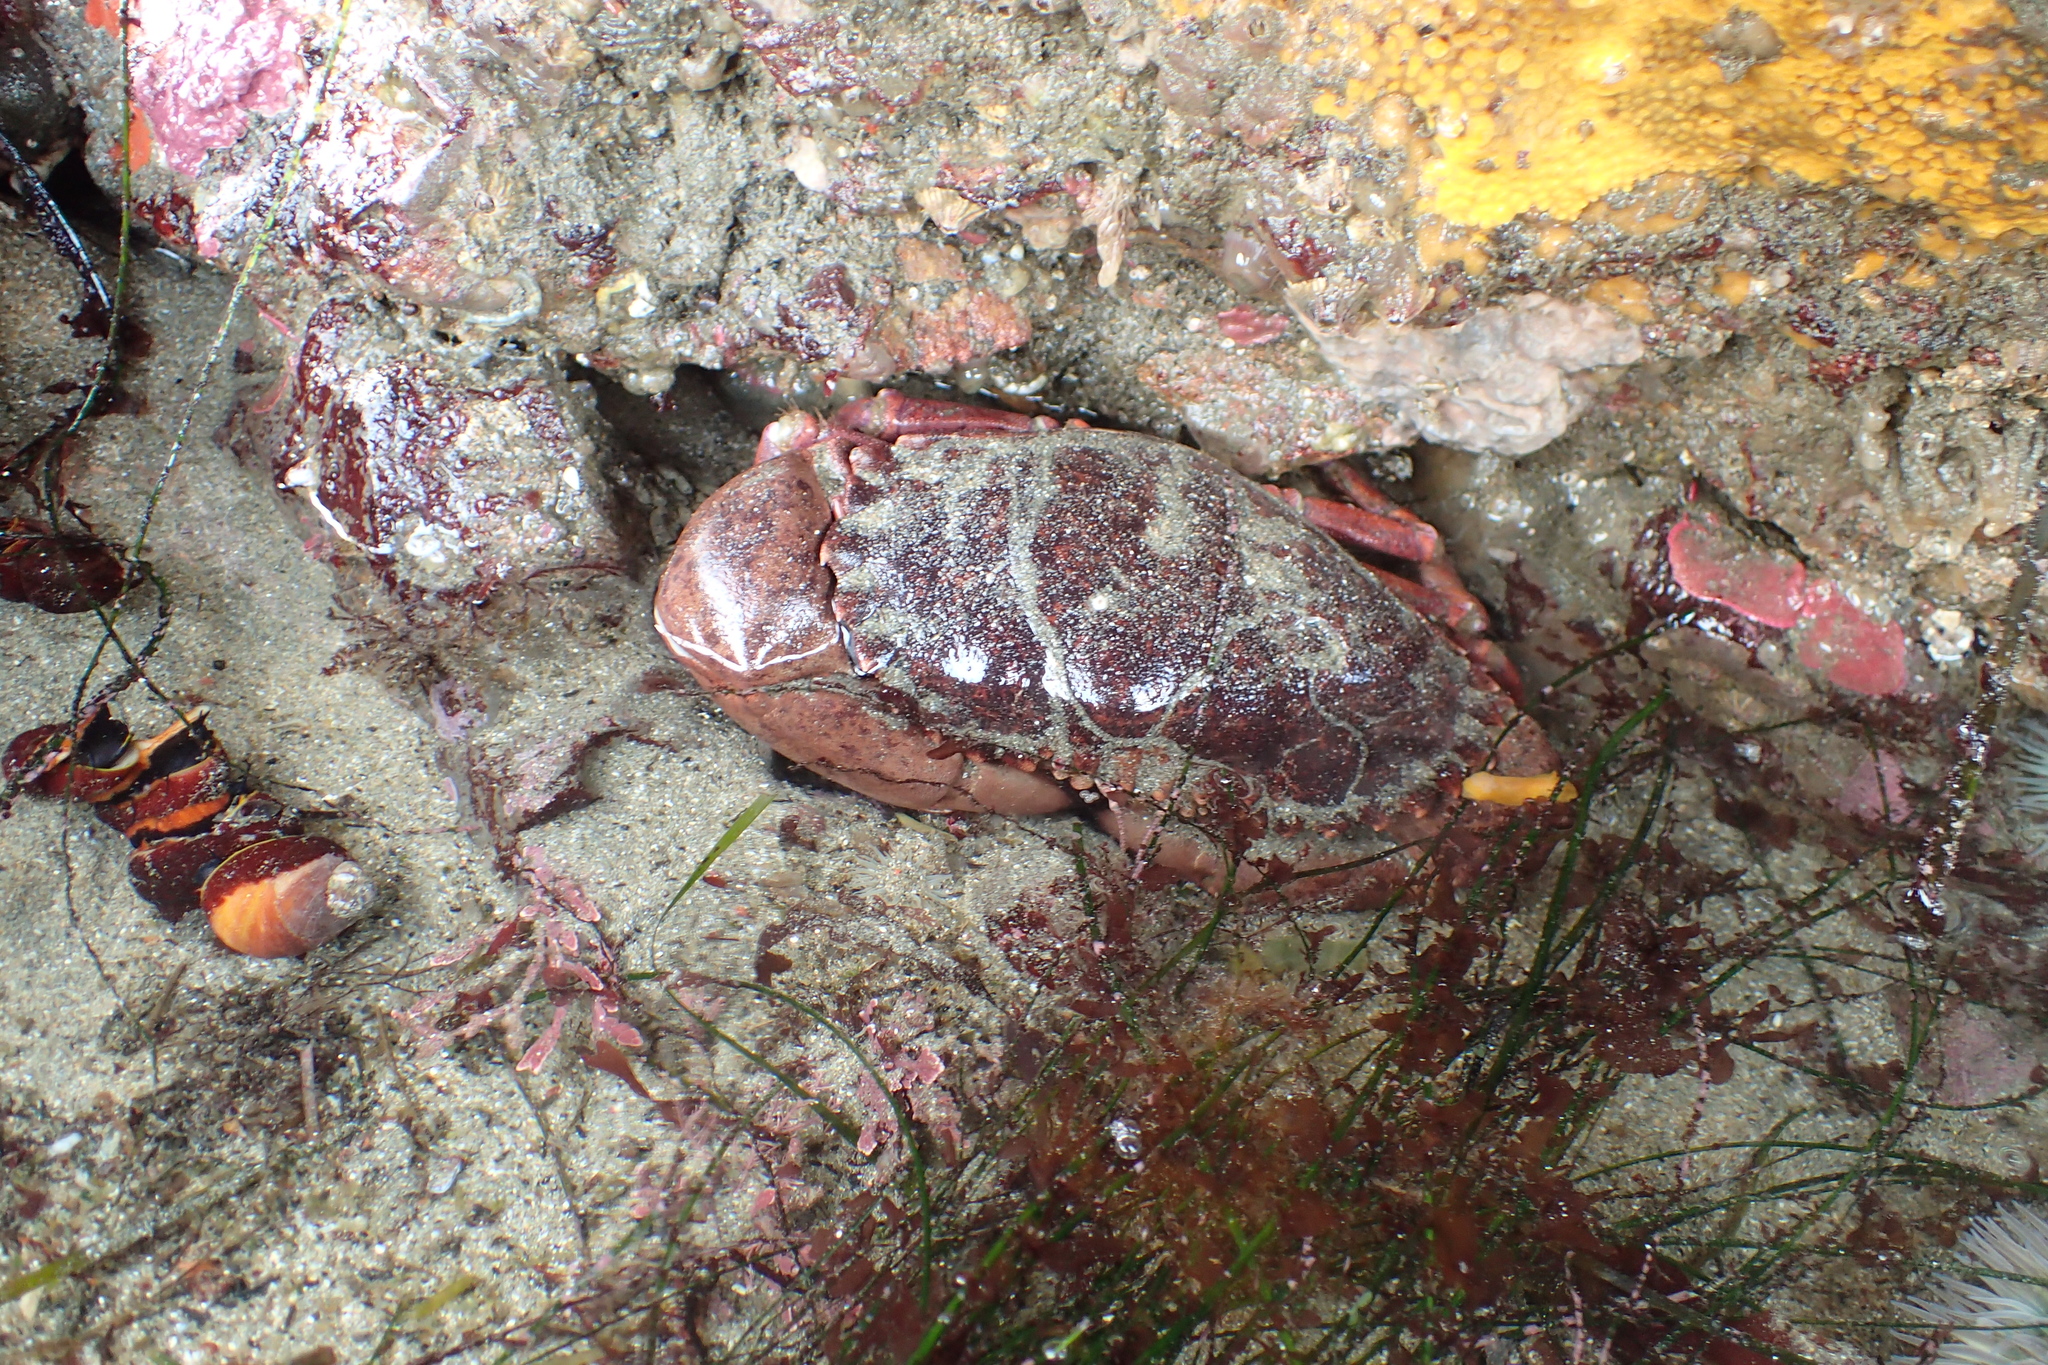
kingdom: Animalia
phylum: Arthropoda
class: Malacostraca
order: Decapoda
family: Cancridae
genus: Romaleon
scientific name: Romaleon antennarium
